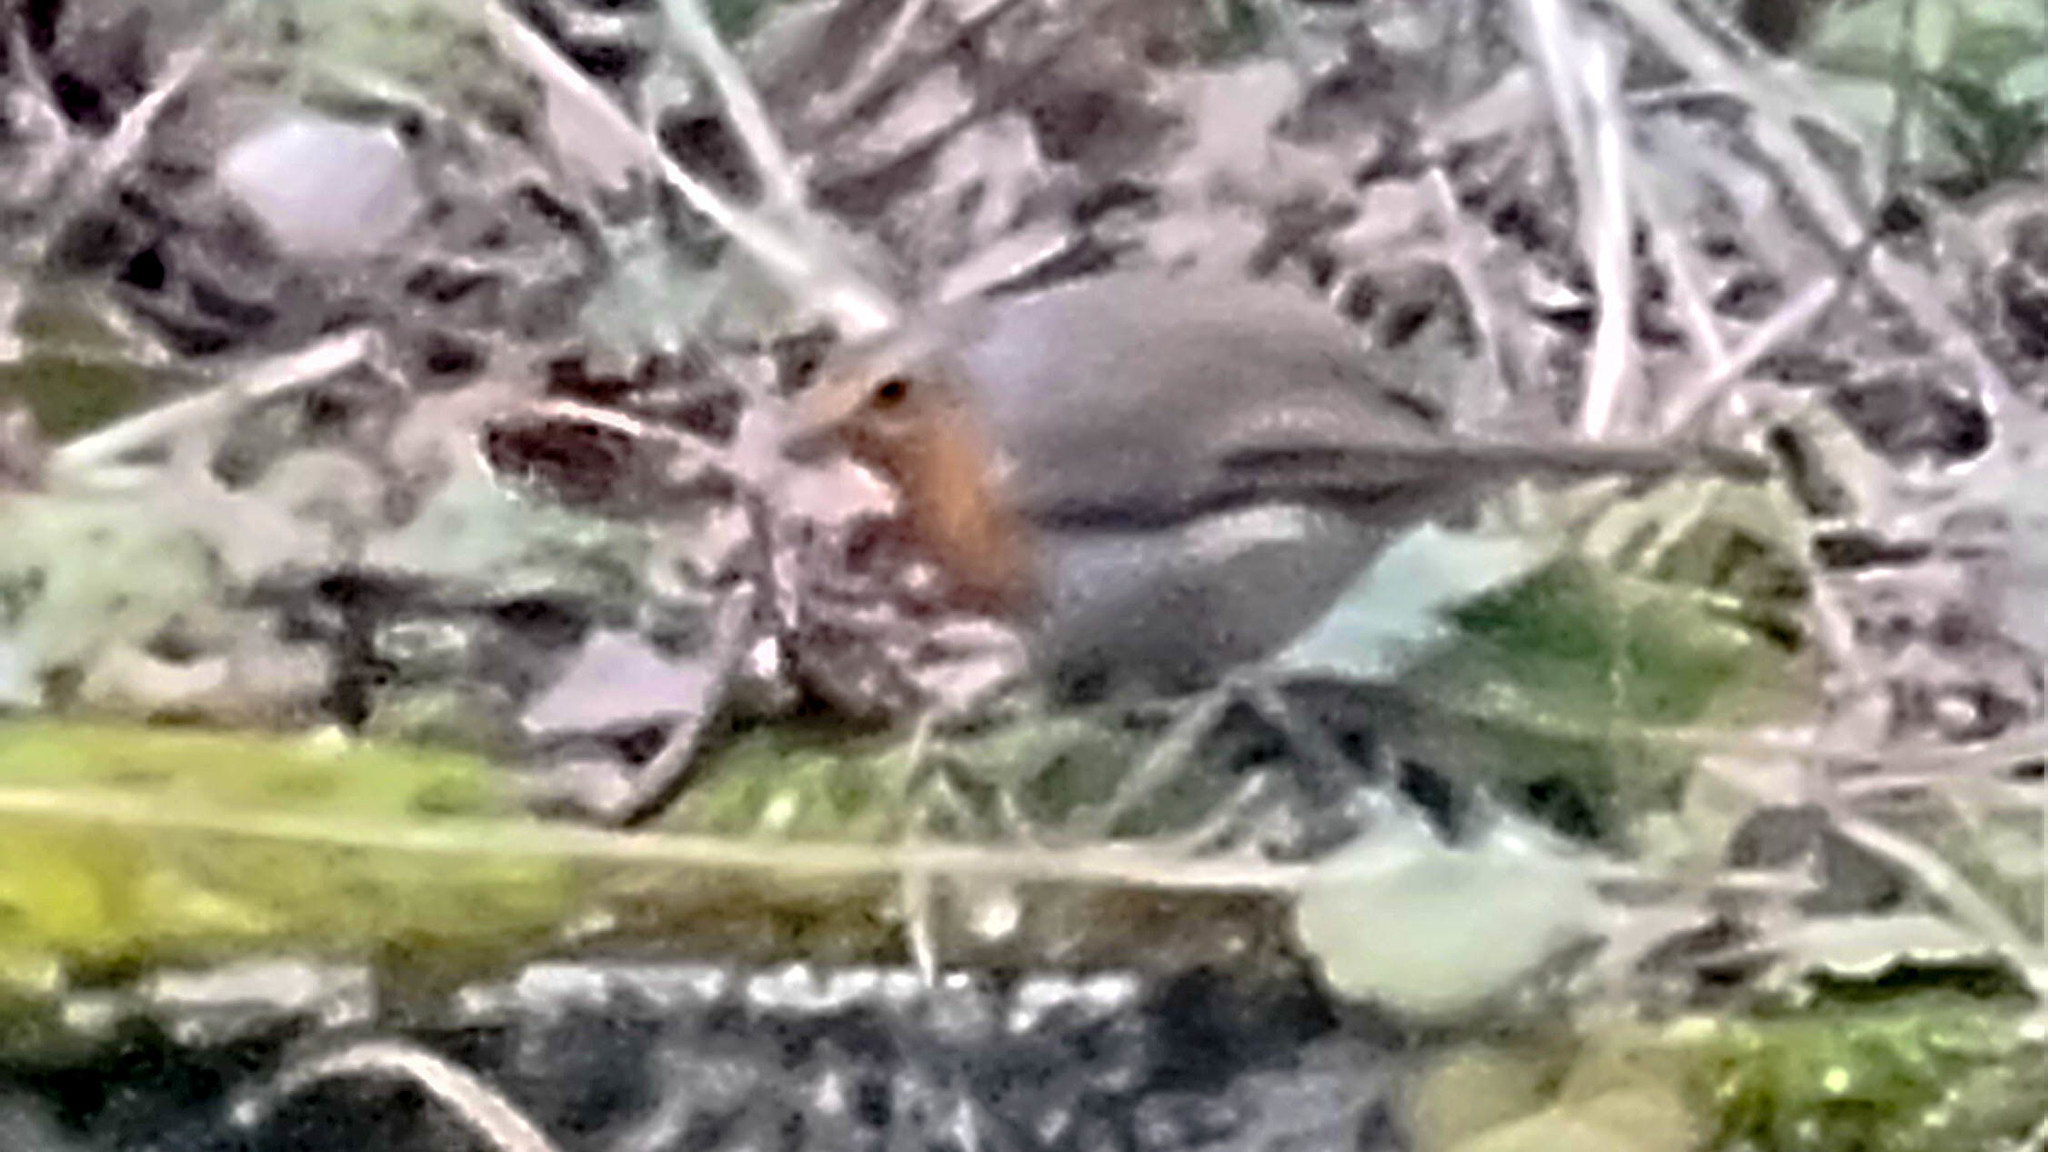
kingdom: Animalia
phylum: Chordata
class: Aves
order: Passeriformes
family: Muscicapidae
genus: Erithacus
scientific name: Erithacus rubecula
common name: European robin
